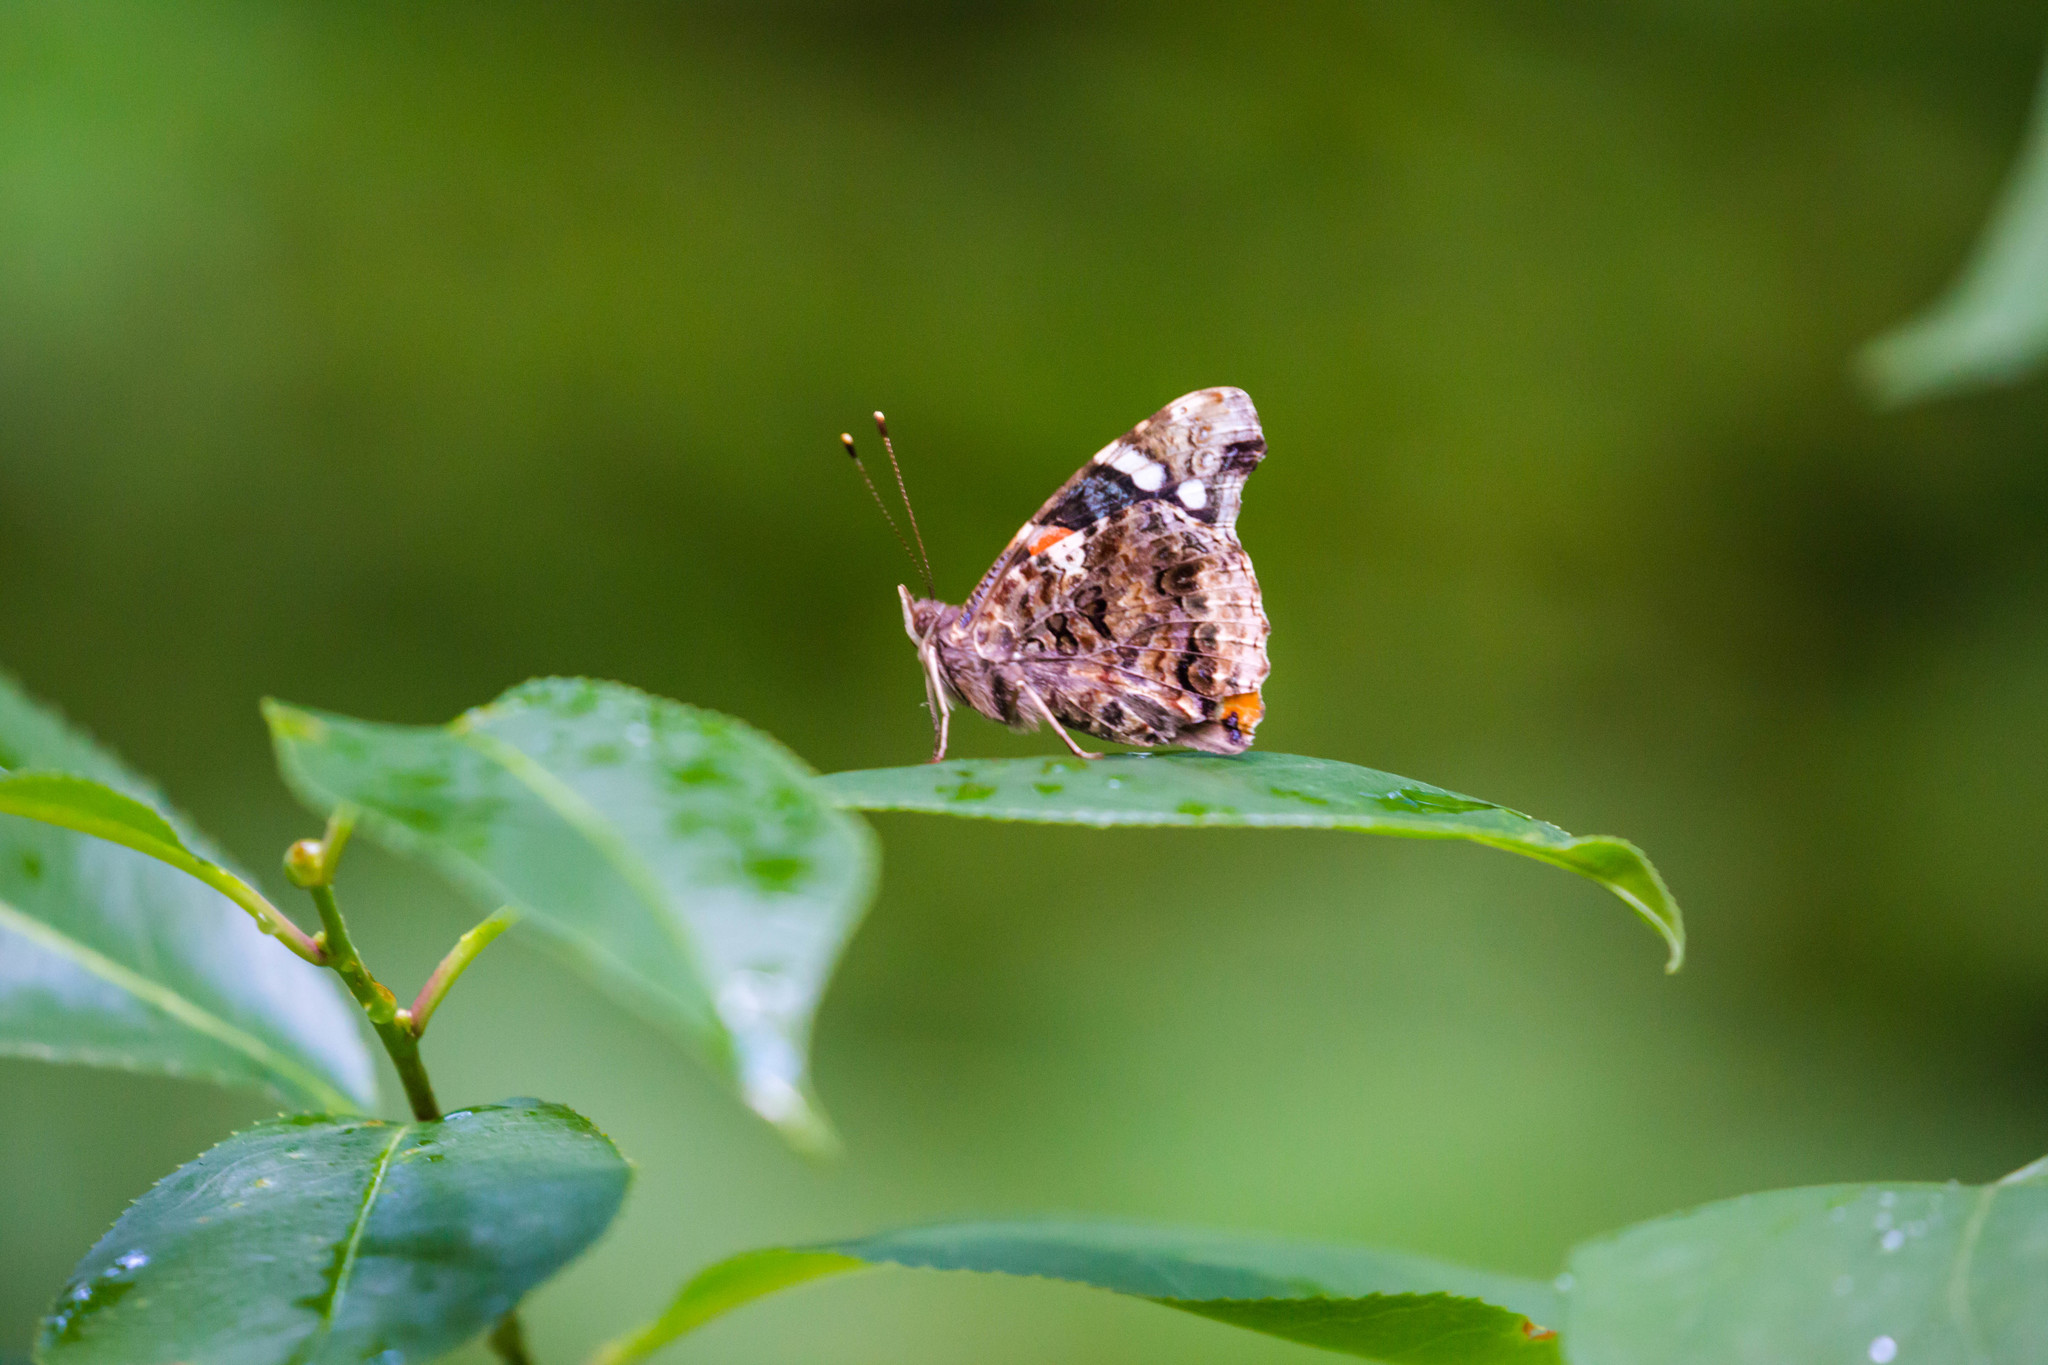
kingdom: Animalia
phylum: Arthropoda
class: Insecta
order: Lepidoptera
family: Nymphalidae
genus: Vanessa
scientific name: Vanessa atalanta
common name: Red admiral
